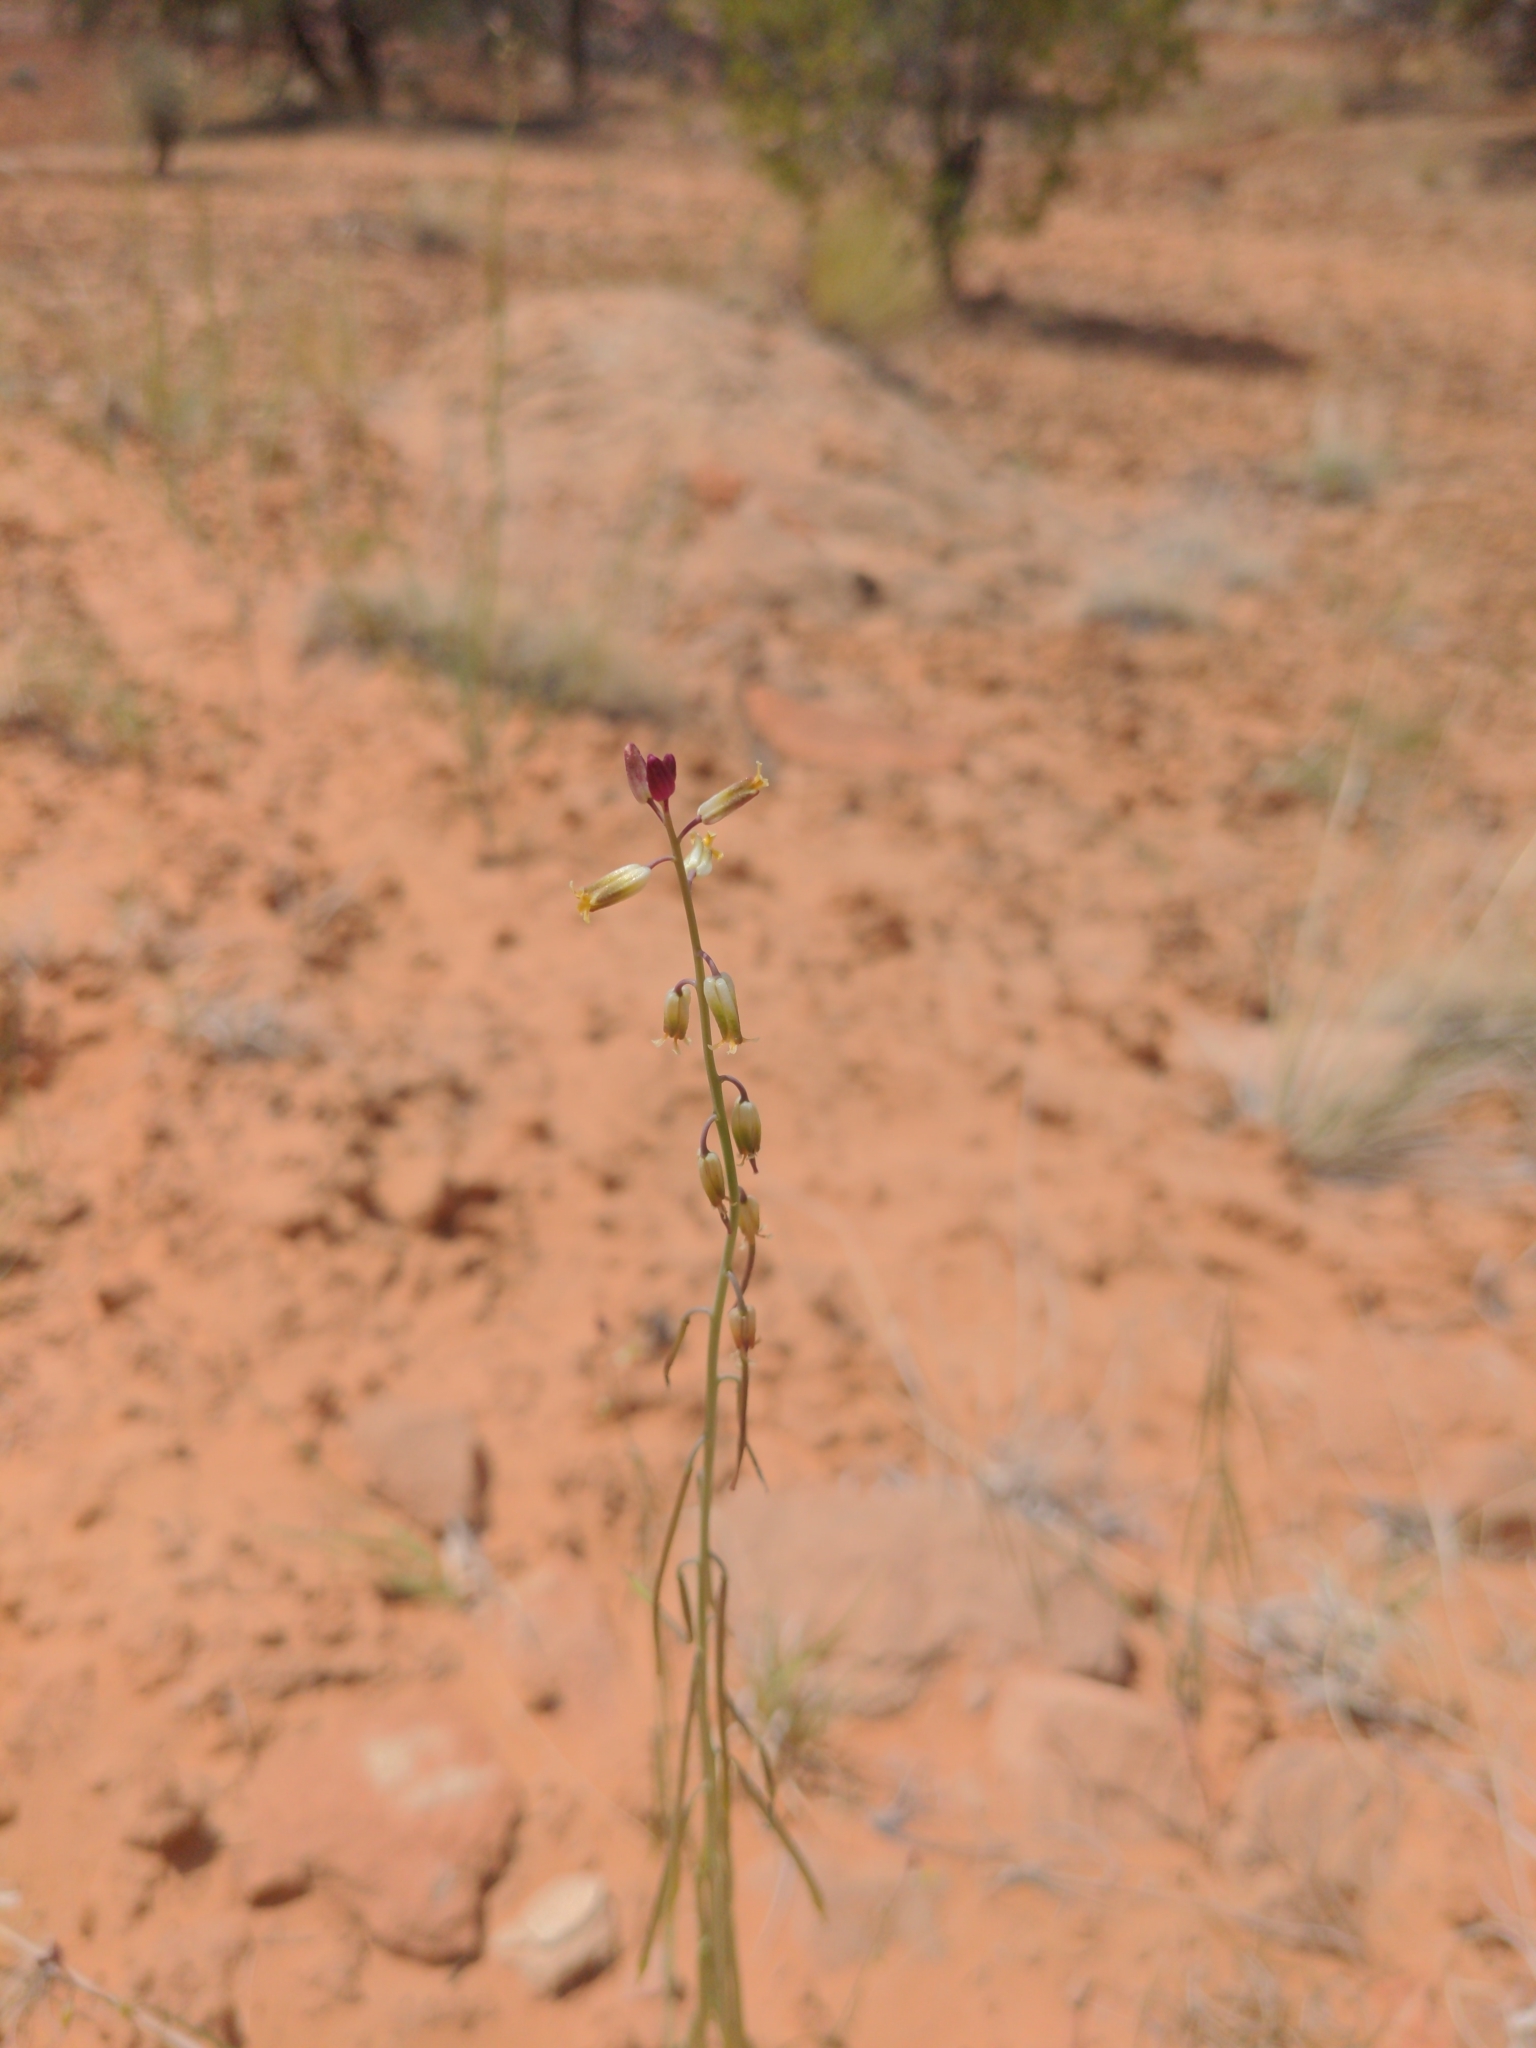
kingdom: Plantae
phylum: Tracheophyta
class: Magnoliopsida
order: Brassicales
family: Brassicaceae
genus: Streptanthus
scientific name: Streptanthus longirostris
